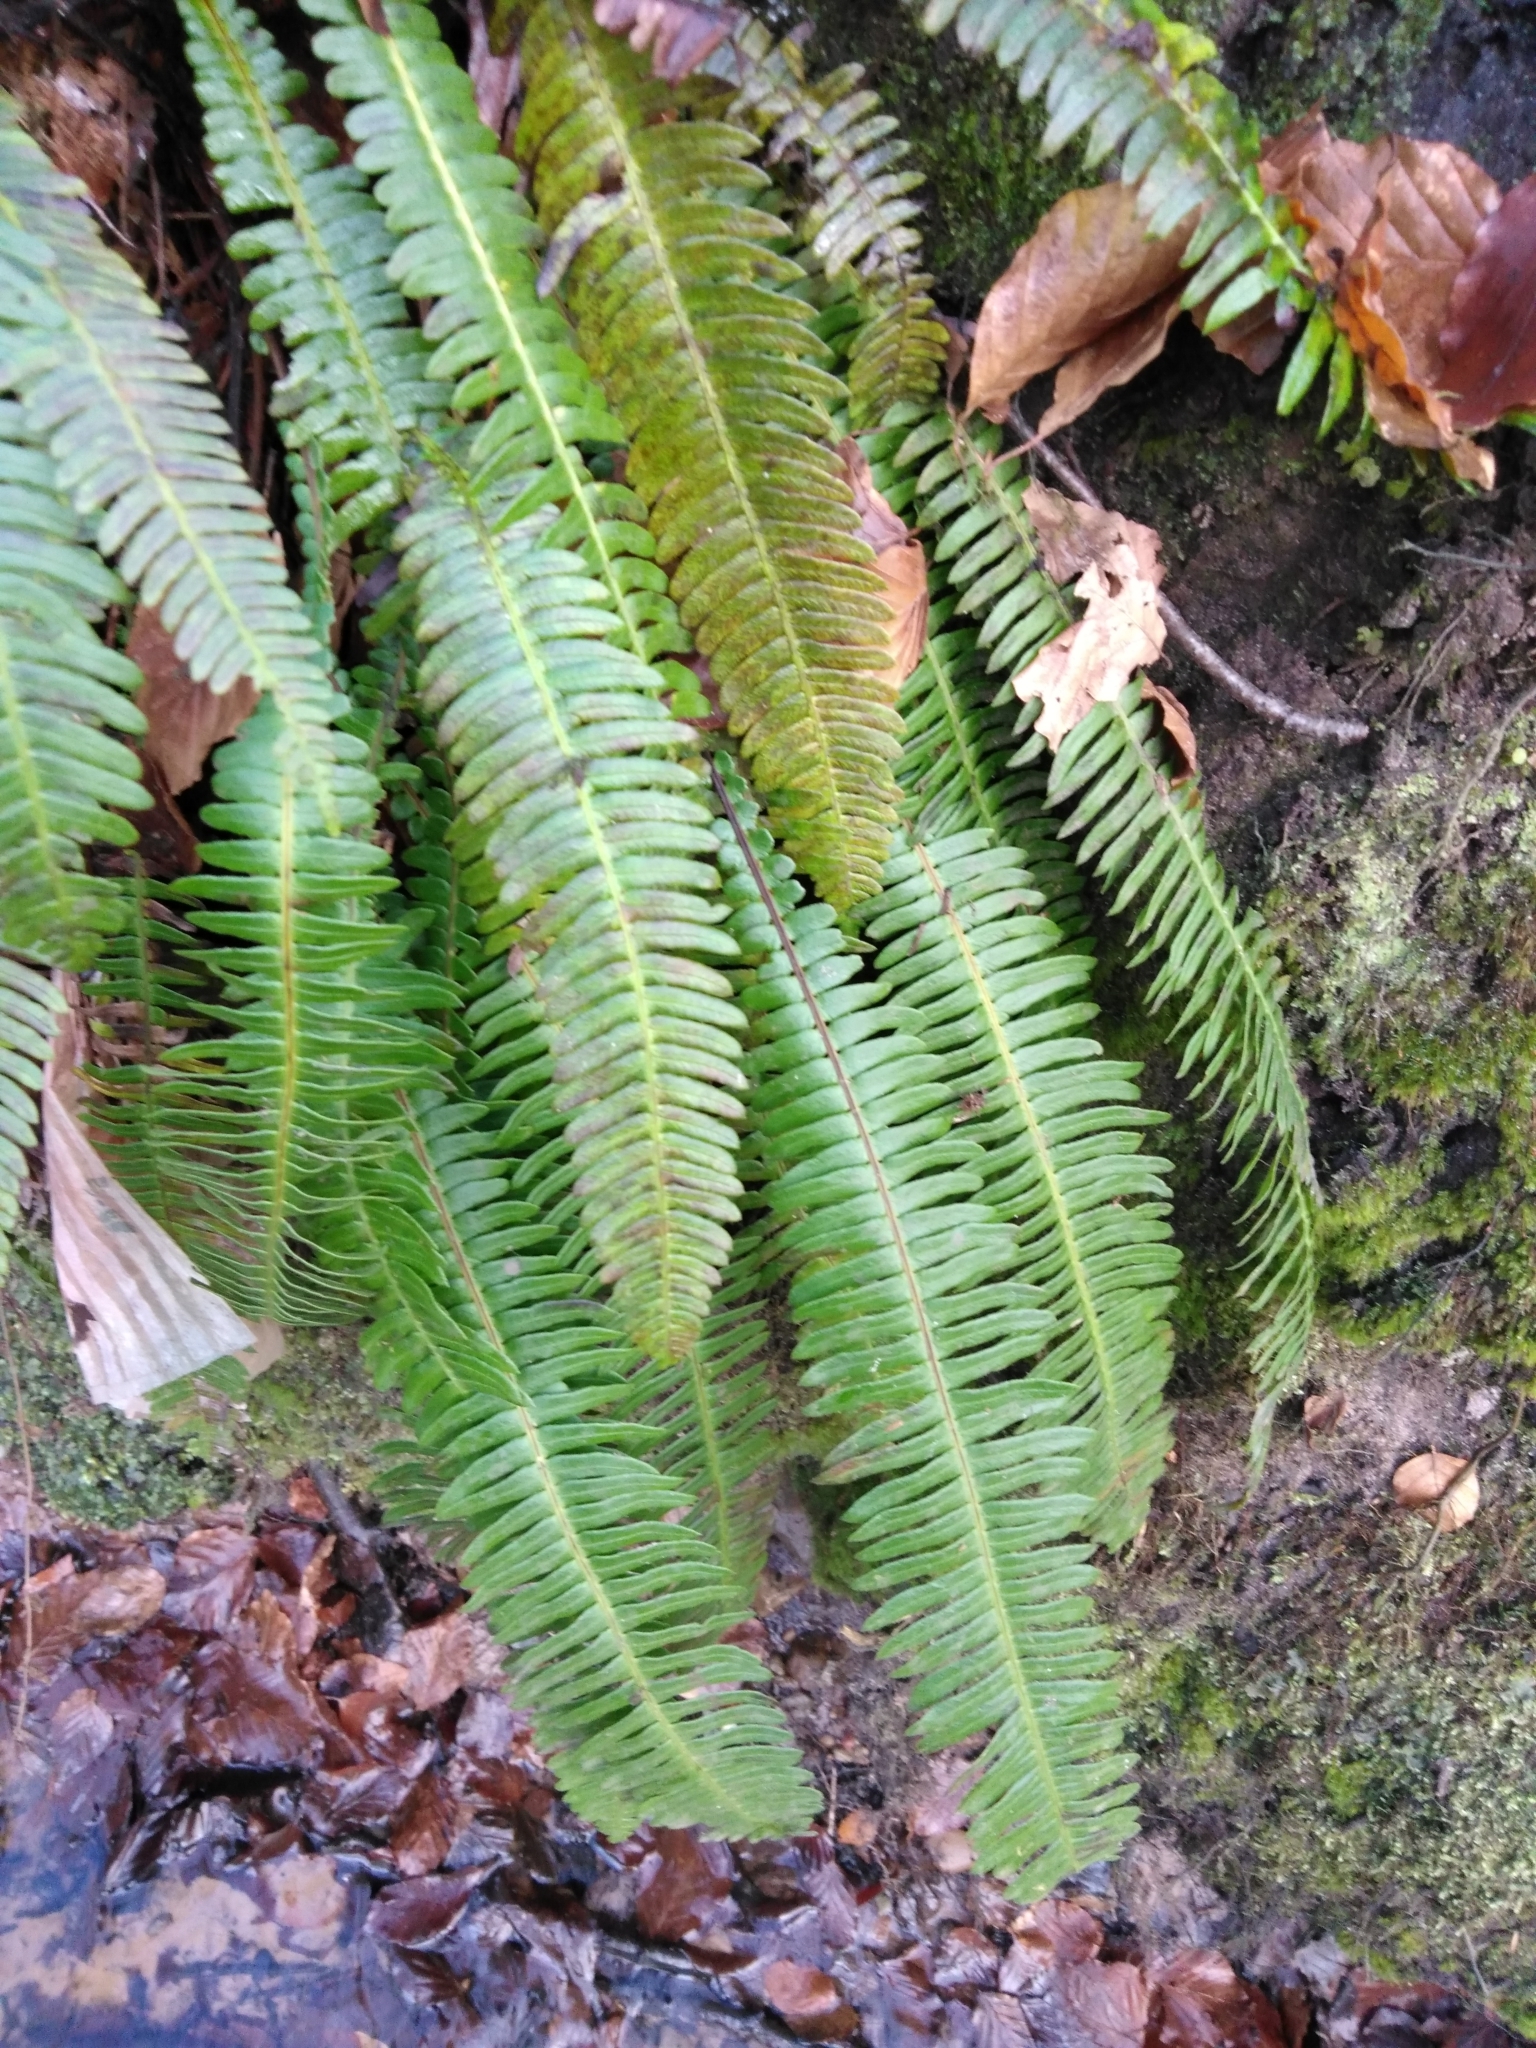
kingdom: Plantae
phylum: Tracheophyta
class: Polypodiopsida
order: Polypodiales
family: Blechnaceae
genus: Struthiopteris
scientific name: Struthiopteris spicant
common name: Deer fern
